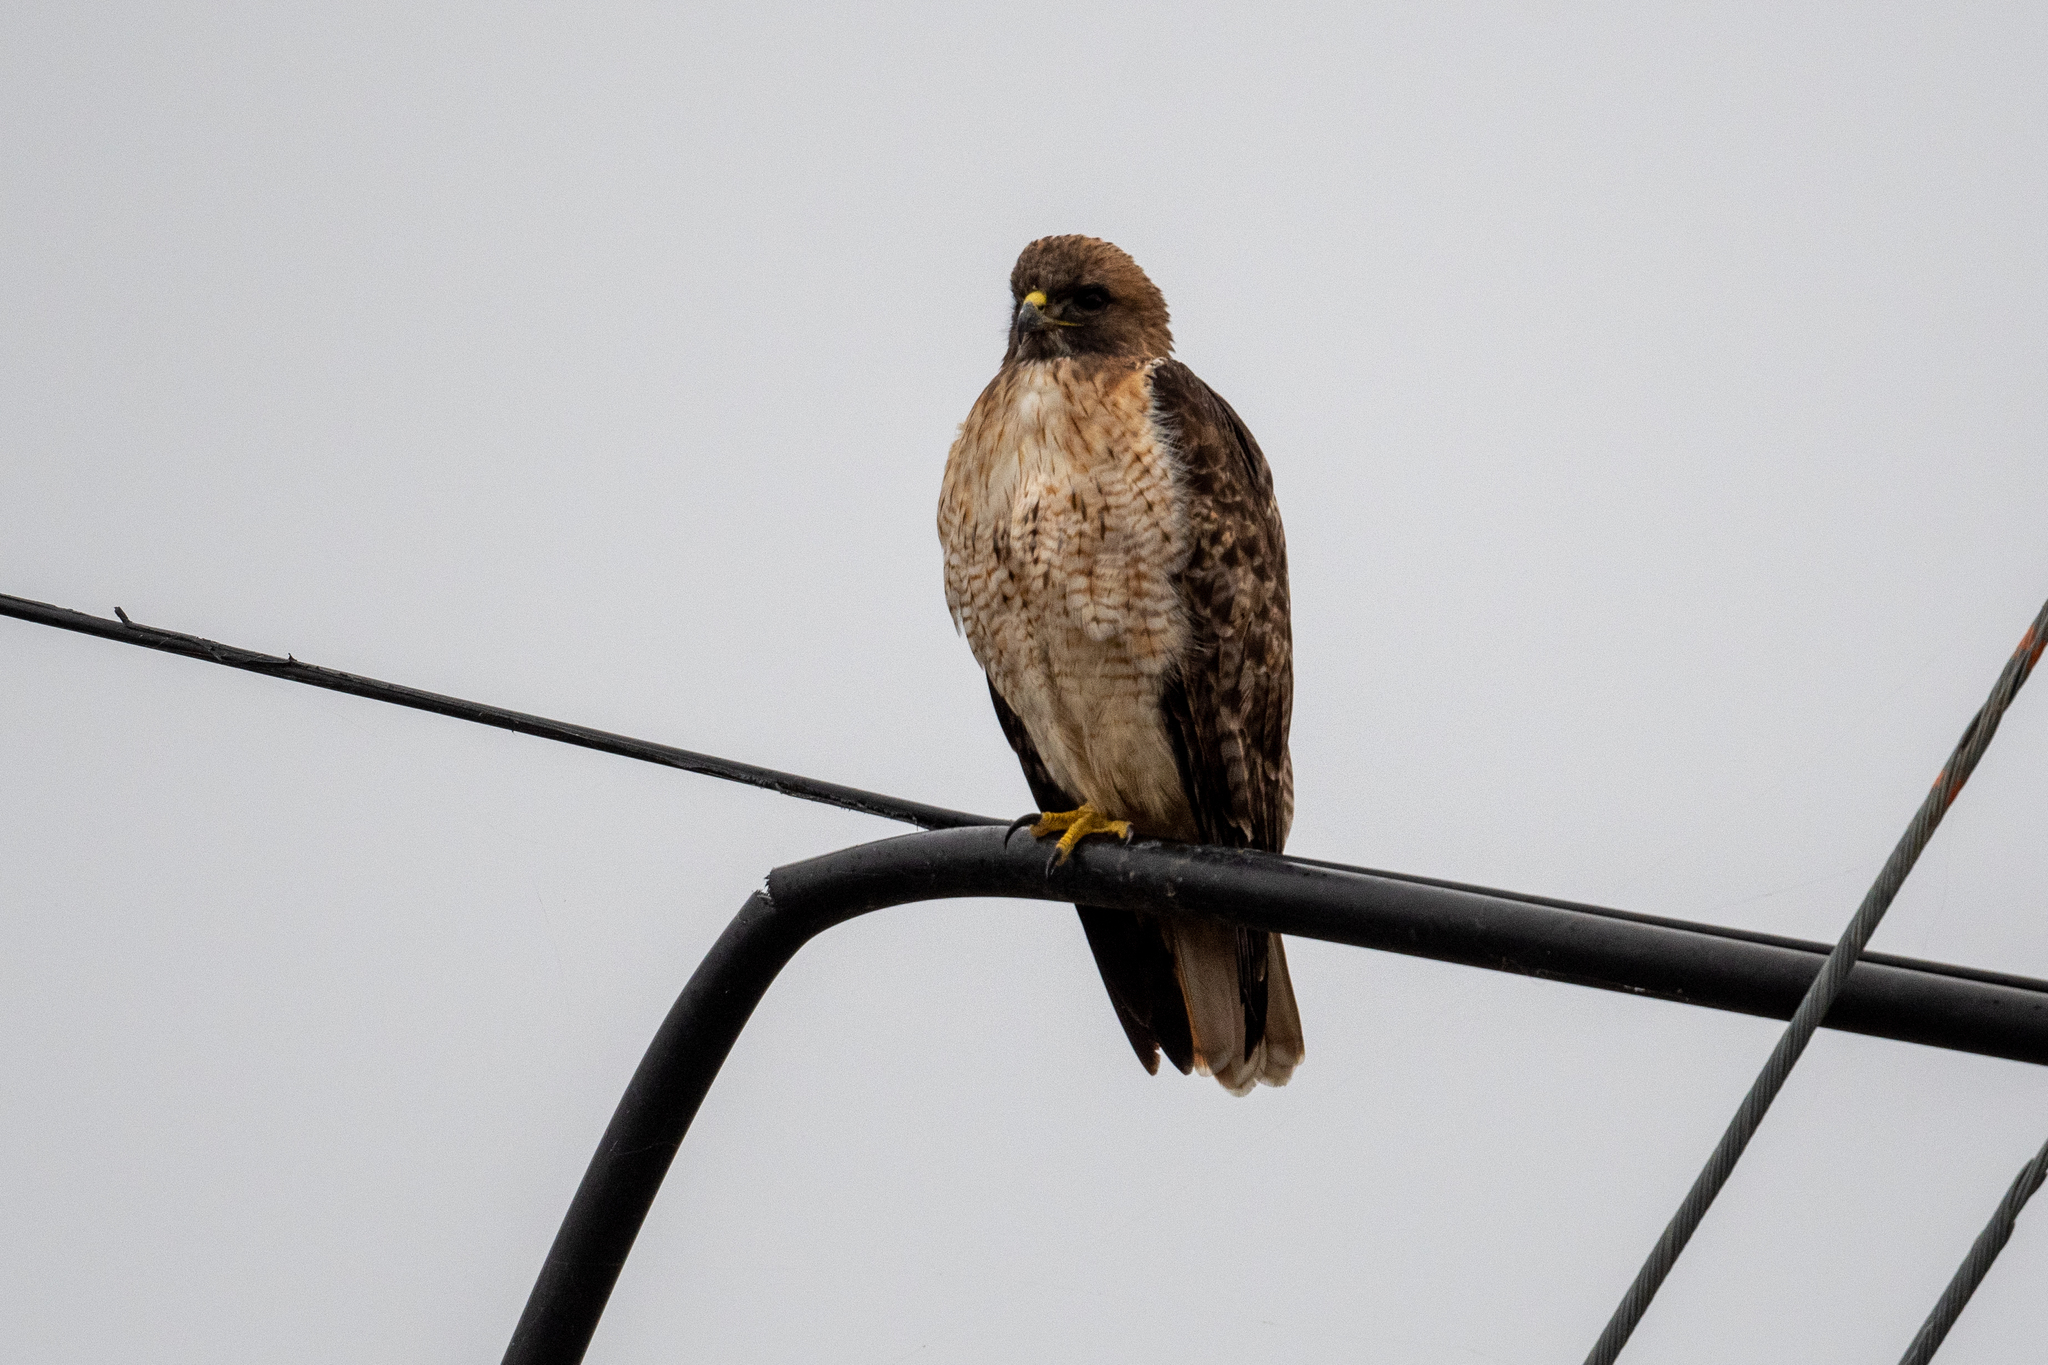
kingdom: Animalia
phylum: Chordata
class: Aves
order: Accipitriformes
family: Accipitridae
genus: Buteo
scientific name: Buteo jamaicensis
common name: Red-tailed hawk
